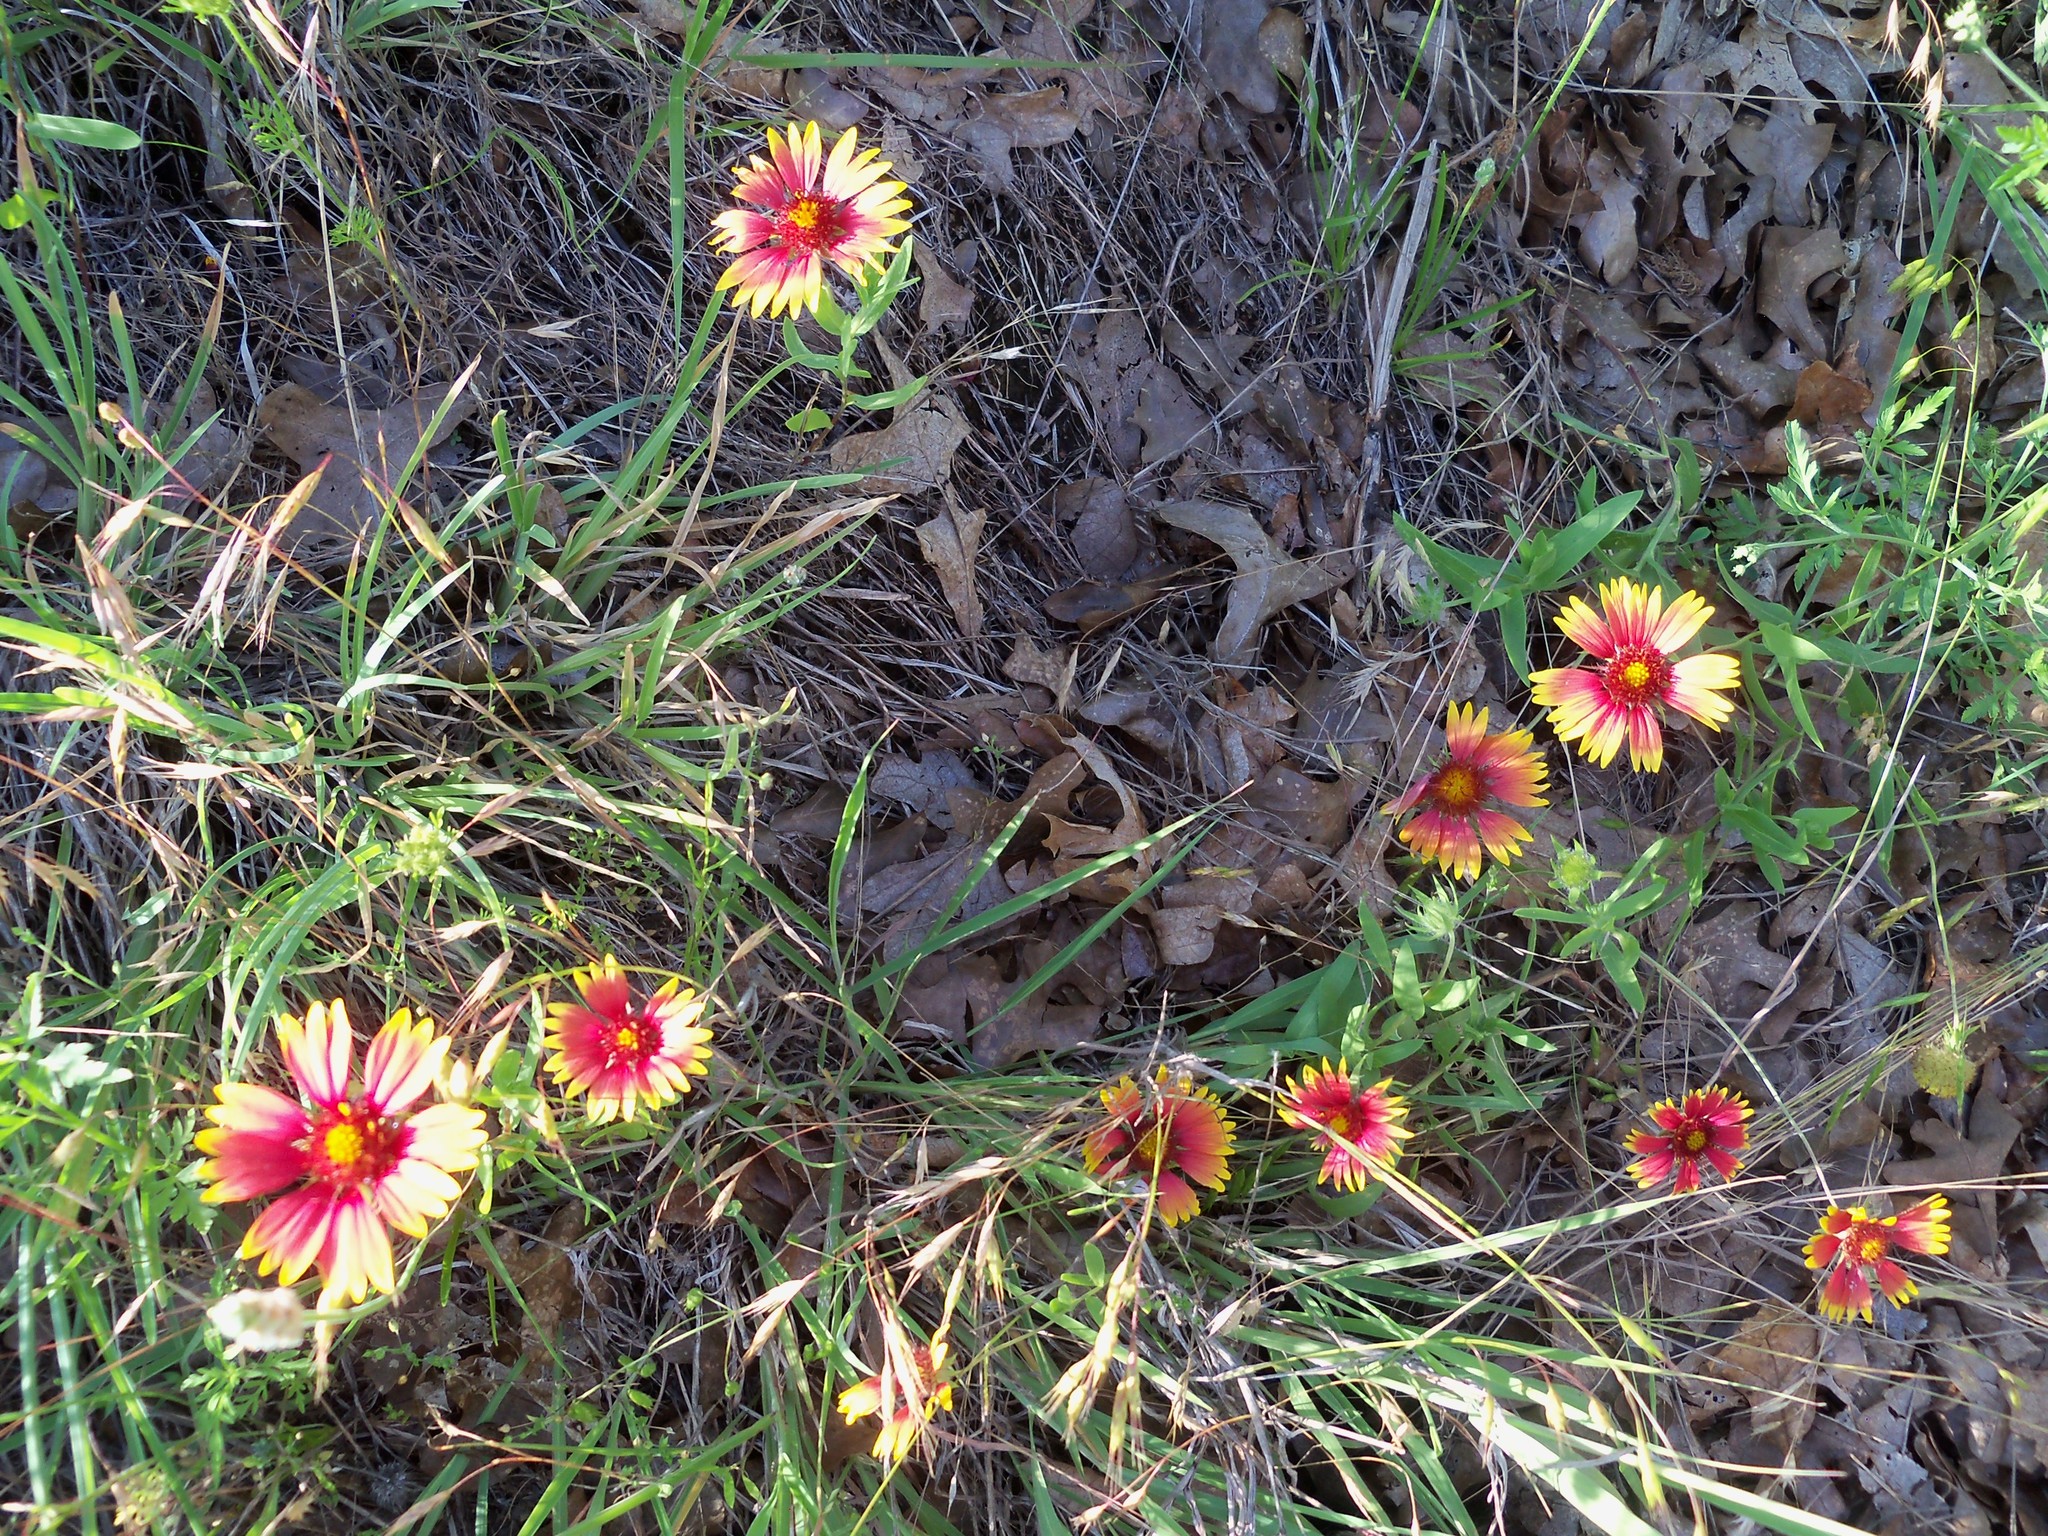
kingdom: Plantae
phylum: Tracheophyta
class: Magnoliopsida
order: Asterales
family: Asteraceae
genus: Gaillardia
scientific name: Gaillardia pulchella
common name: Firewheel
